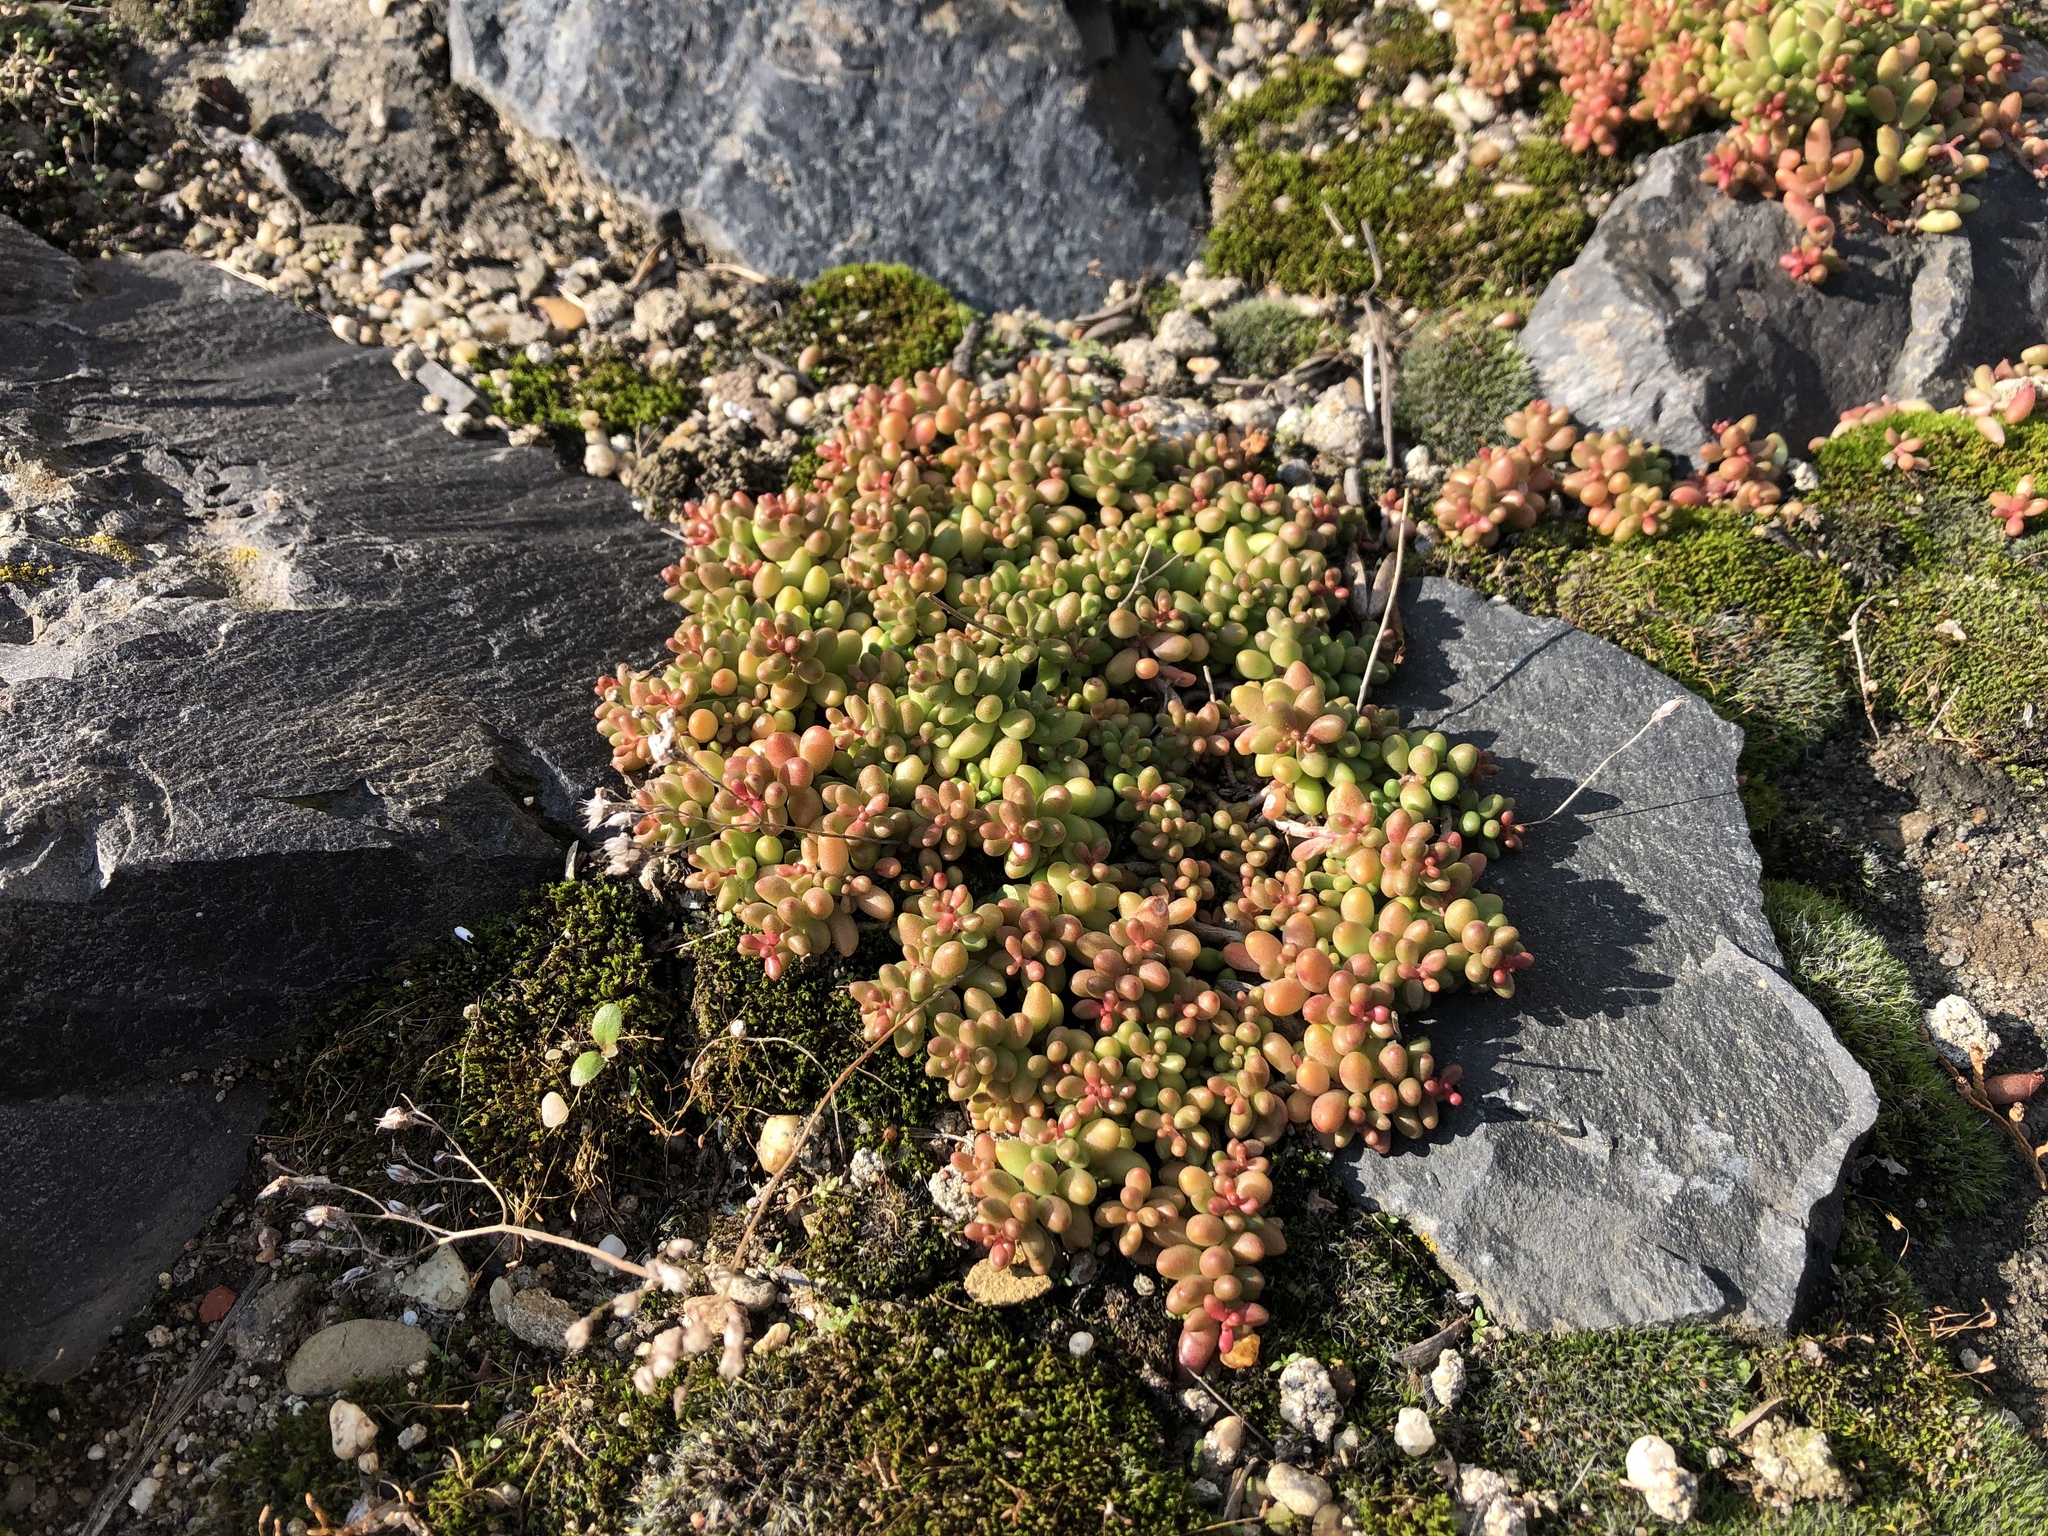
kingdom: Plantae
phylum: Tracheophyta
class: Magnoliopsida
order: Saxifragales
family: Crassulaceae
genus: Sedum
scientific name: Sedum album
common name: White stonecrop
